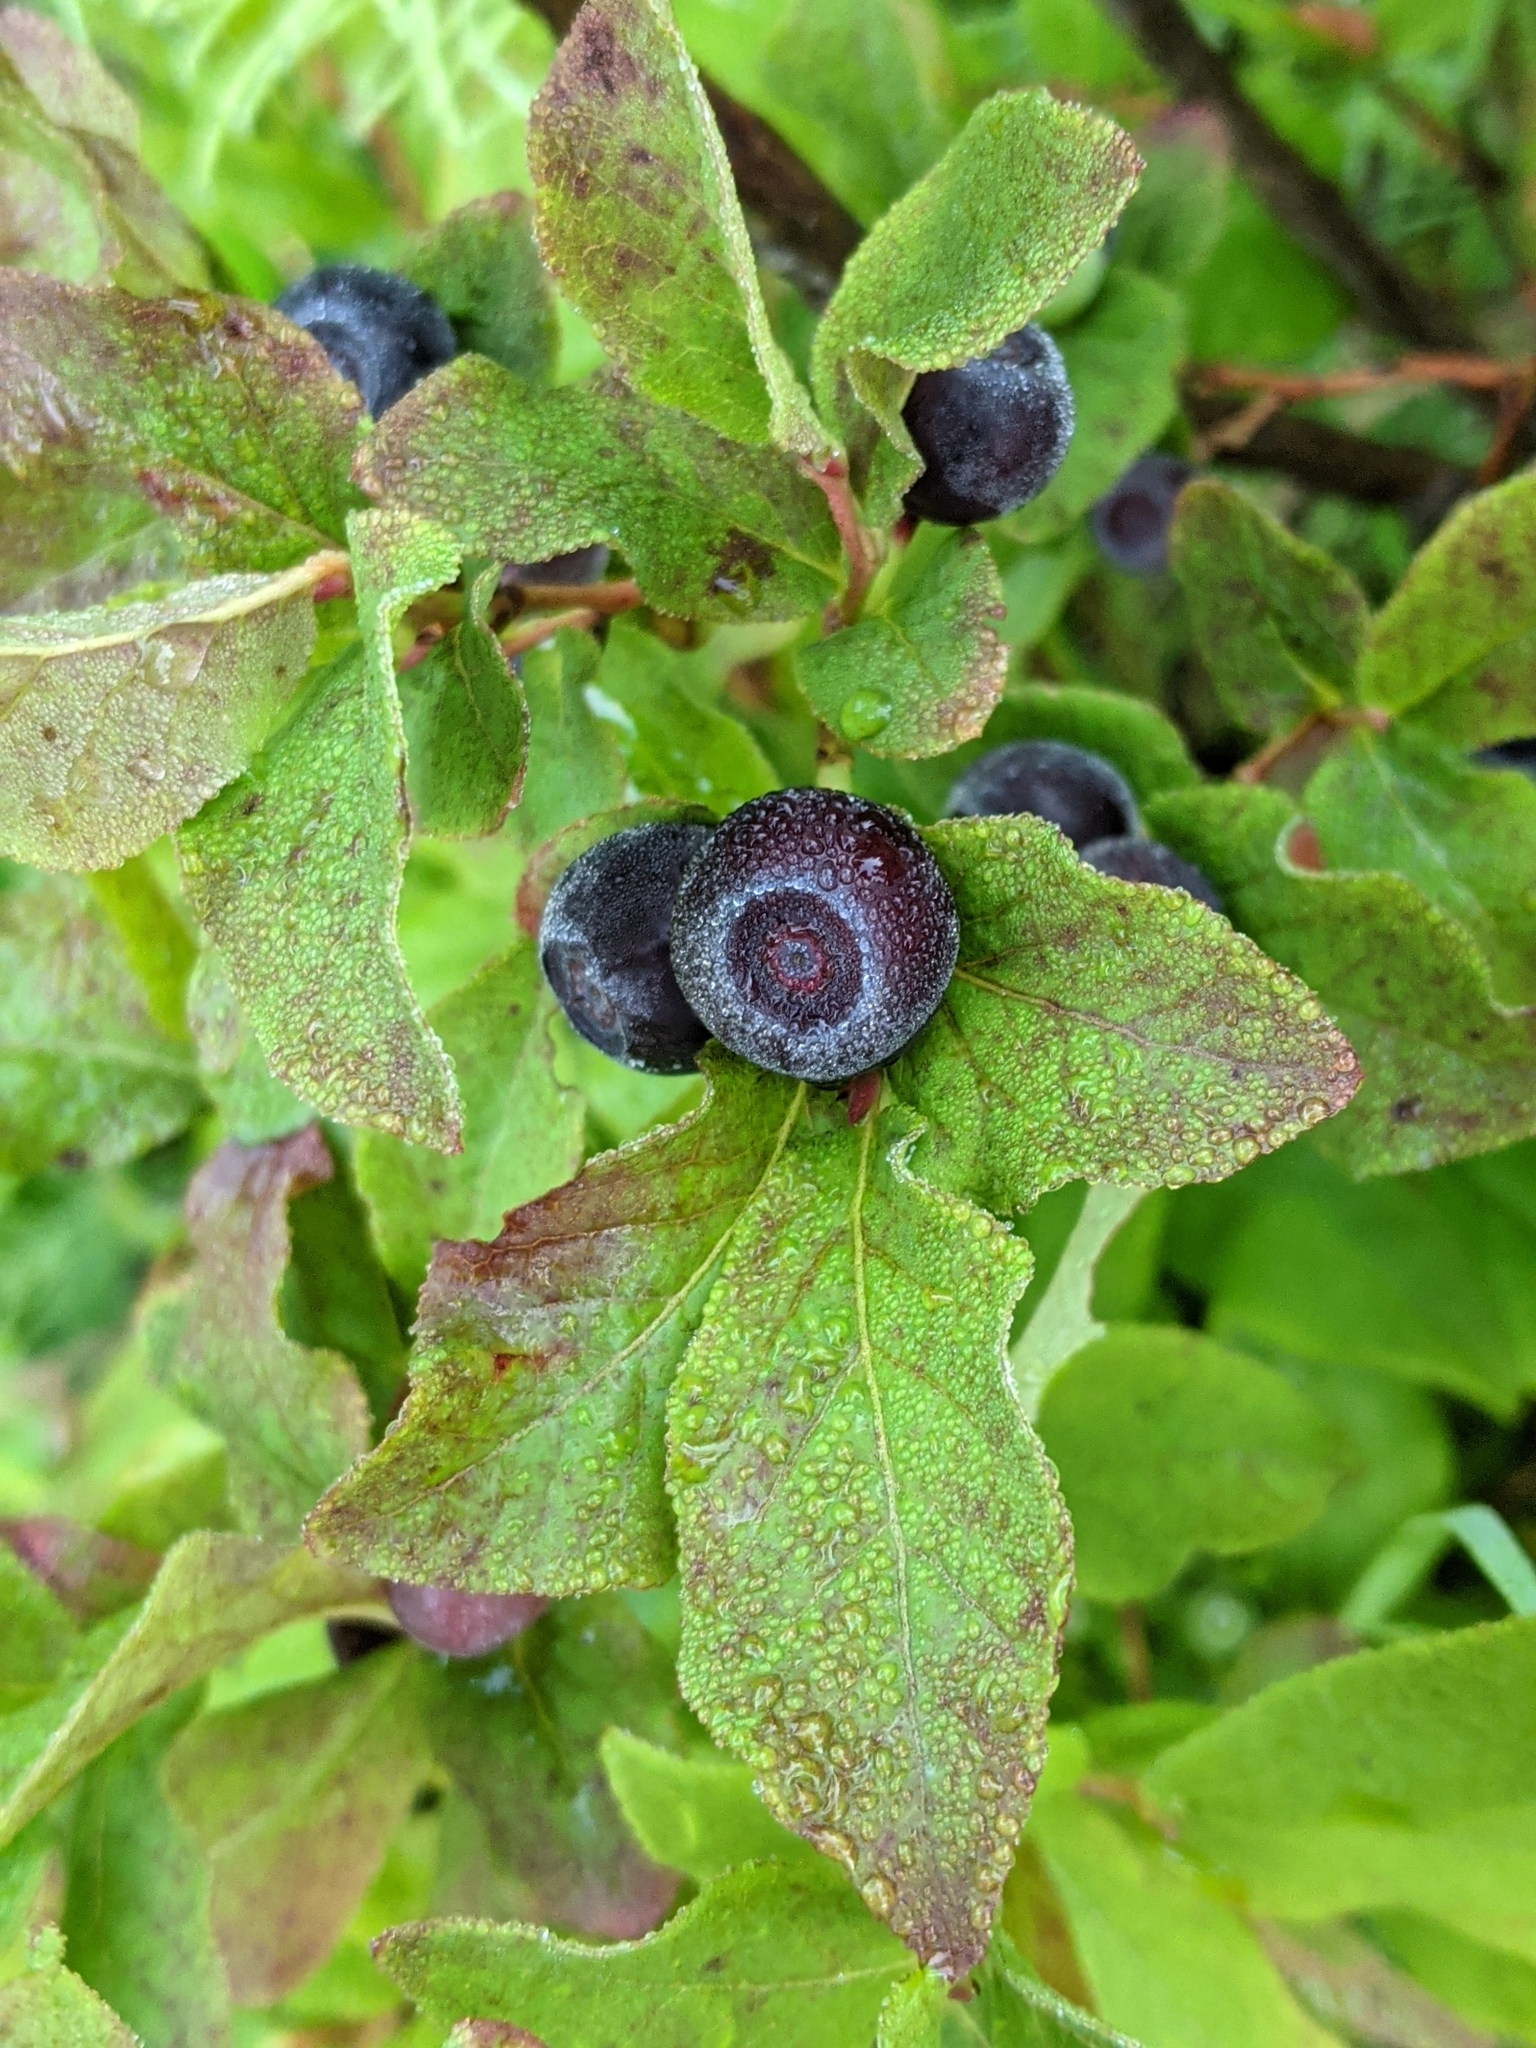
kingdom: Plantae
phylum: Tracheophyta
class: Magnoliopsida
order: Ericales
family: Ericaceae
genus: Vaccinium
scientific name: Vaccinium membranaceum
